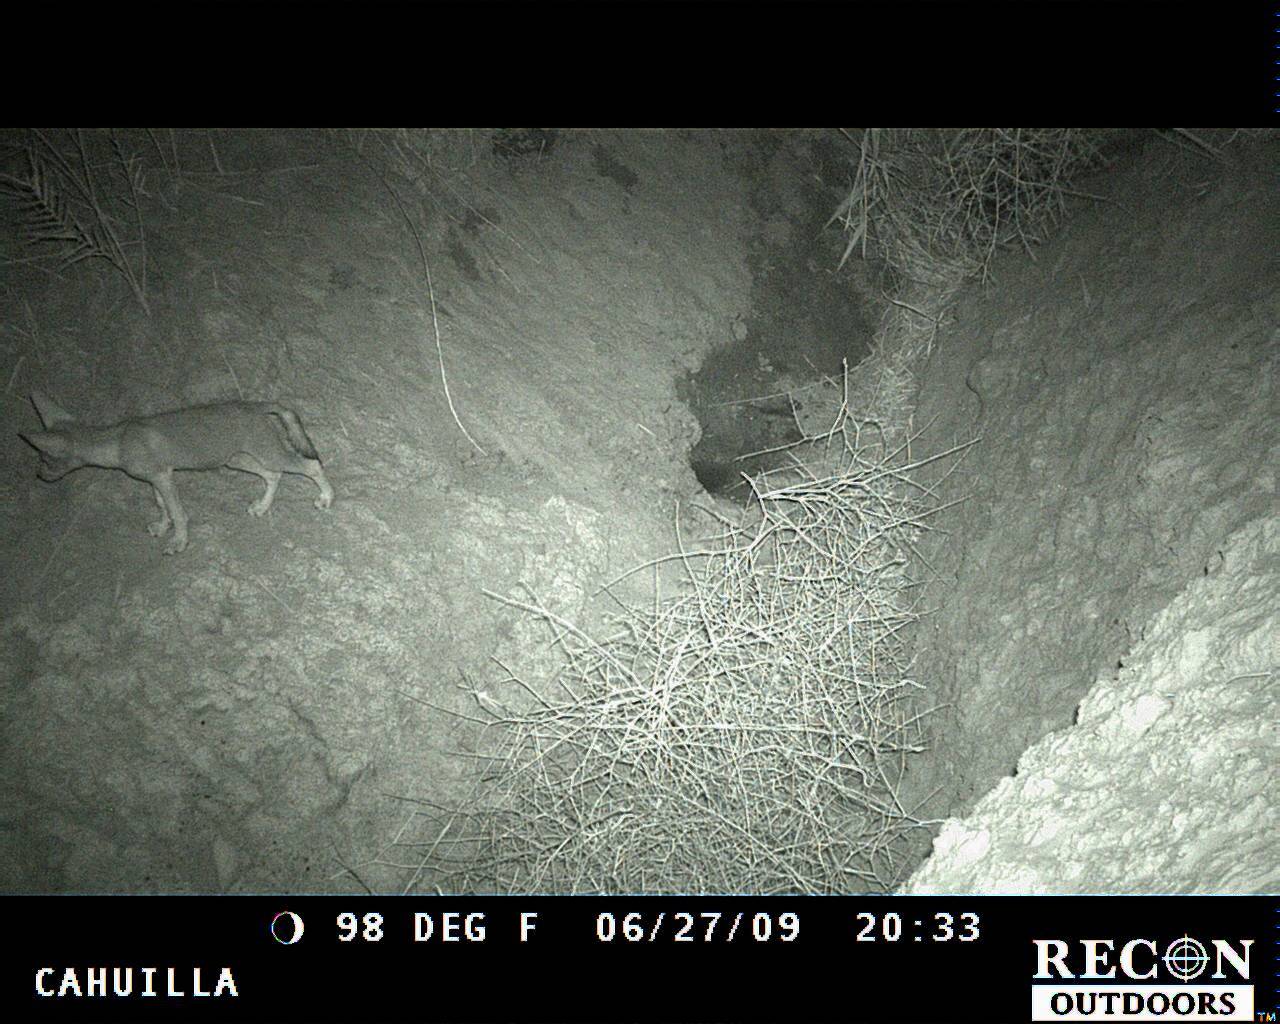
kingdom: Animalia
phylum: Chordata
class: Mammalia
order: Carnivora
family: Canidae
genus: Canis
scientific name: Canis latrans
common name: Coyote
